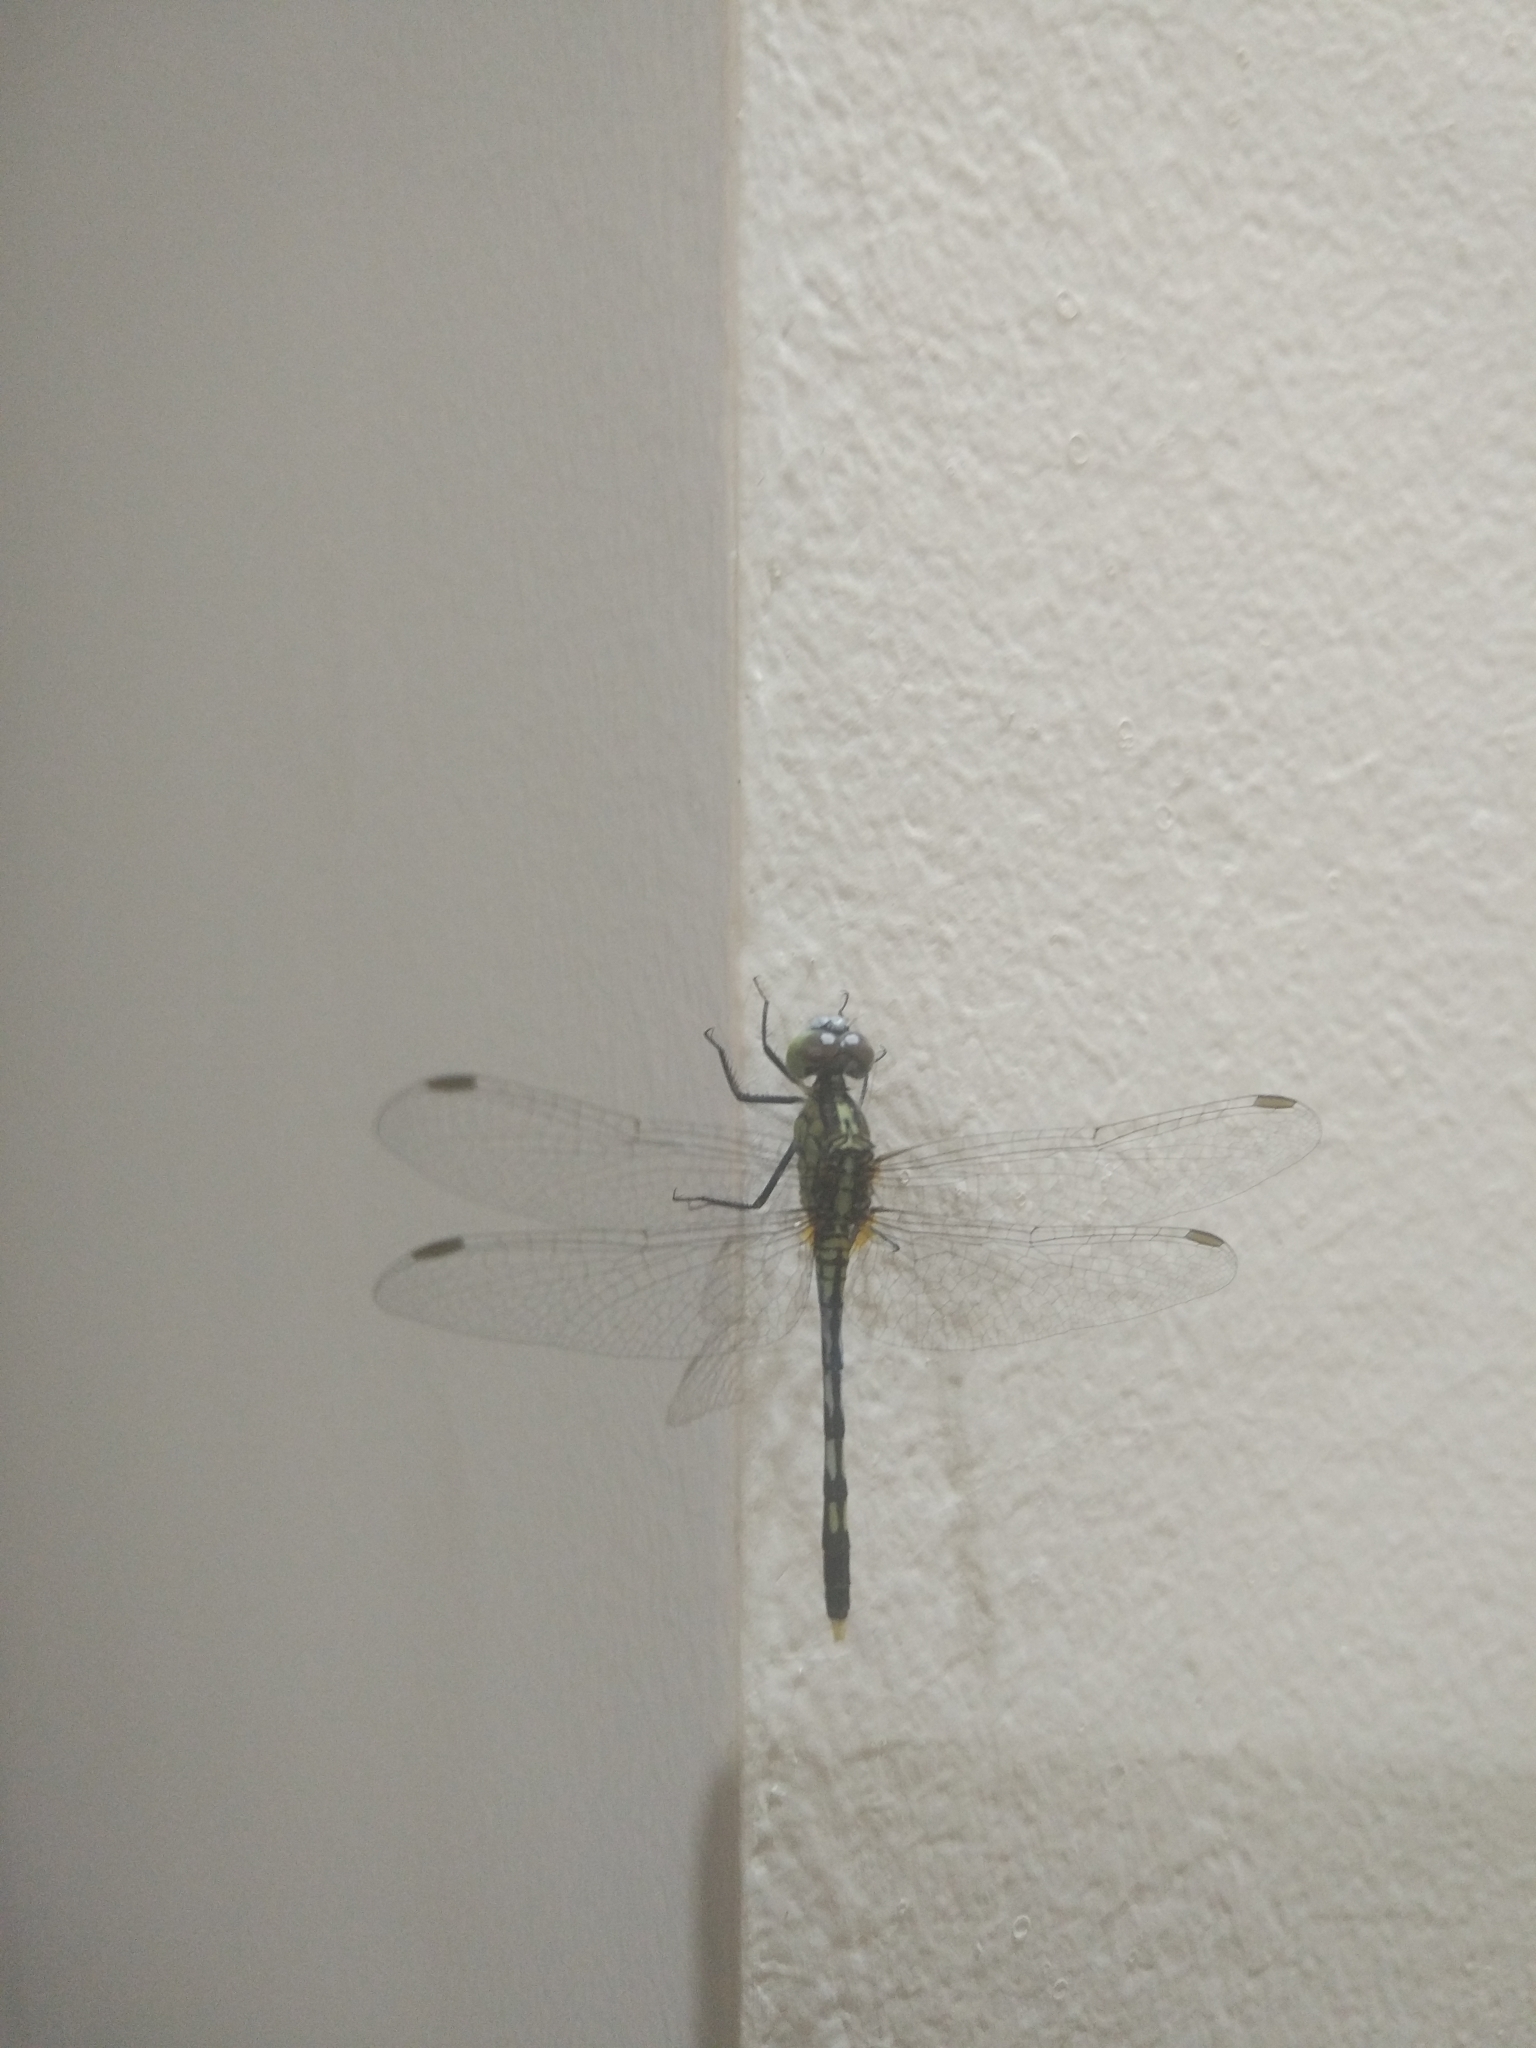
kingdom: Animalia
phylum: Arthropoda
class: Insecta
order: Odonata
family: Libellulidae
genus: Diplacodes
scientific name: Diplacodes trivialis
